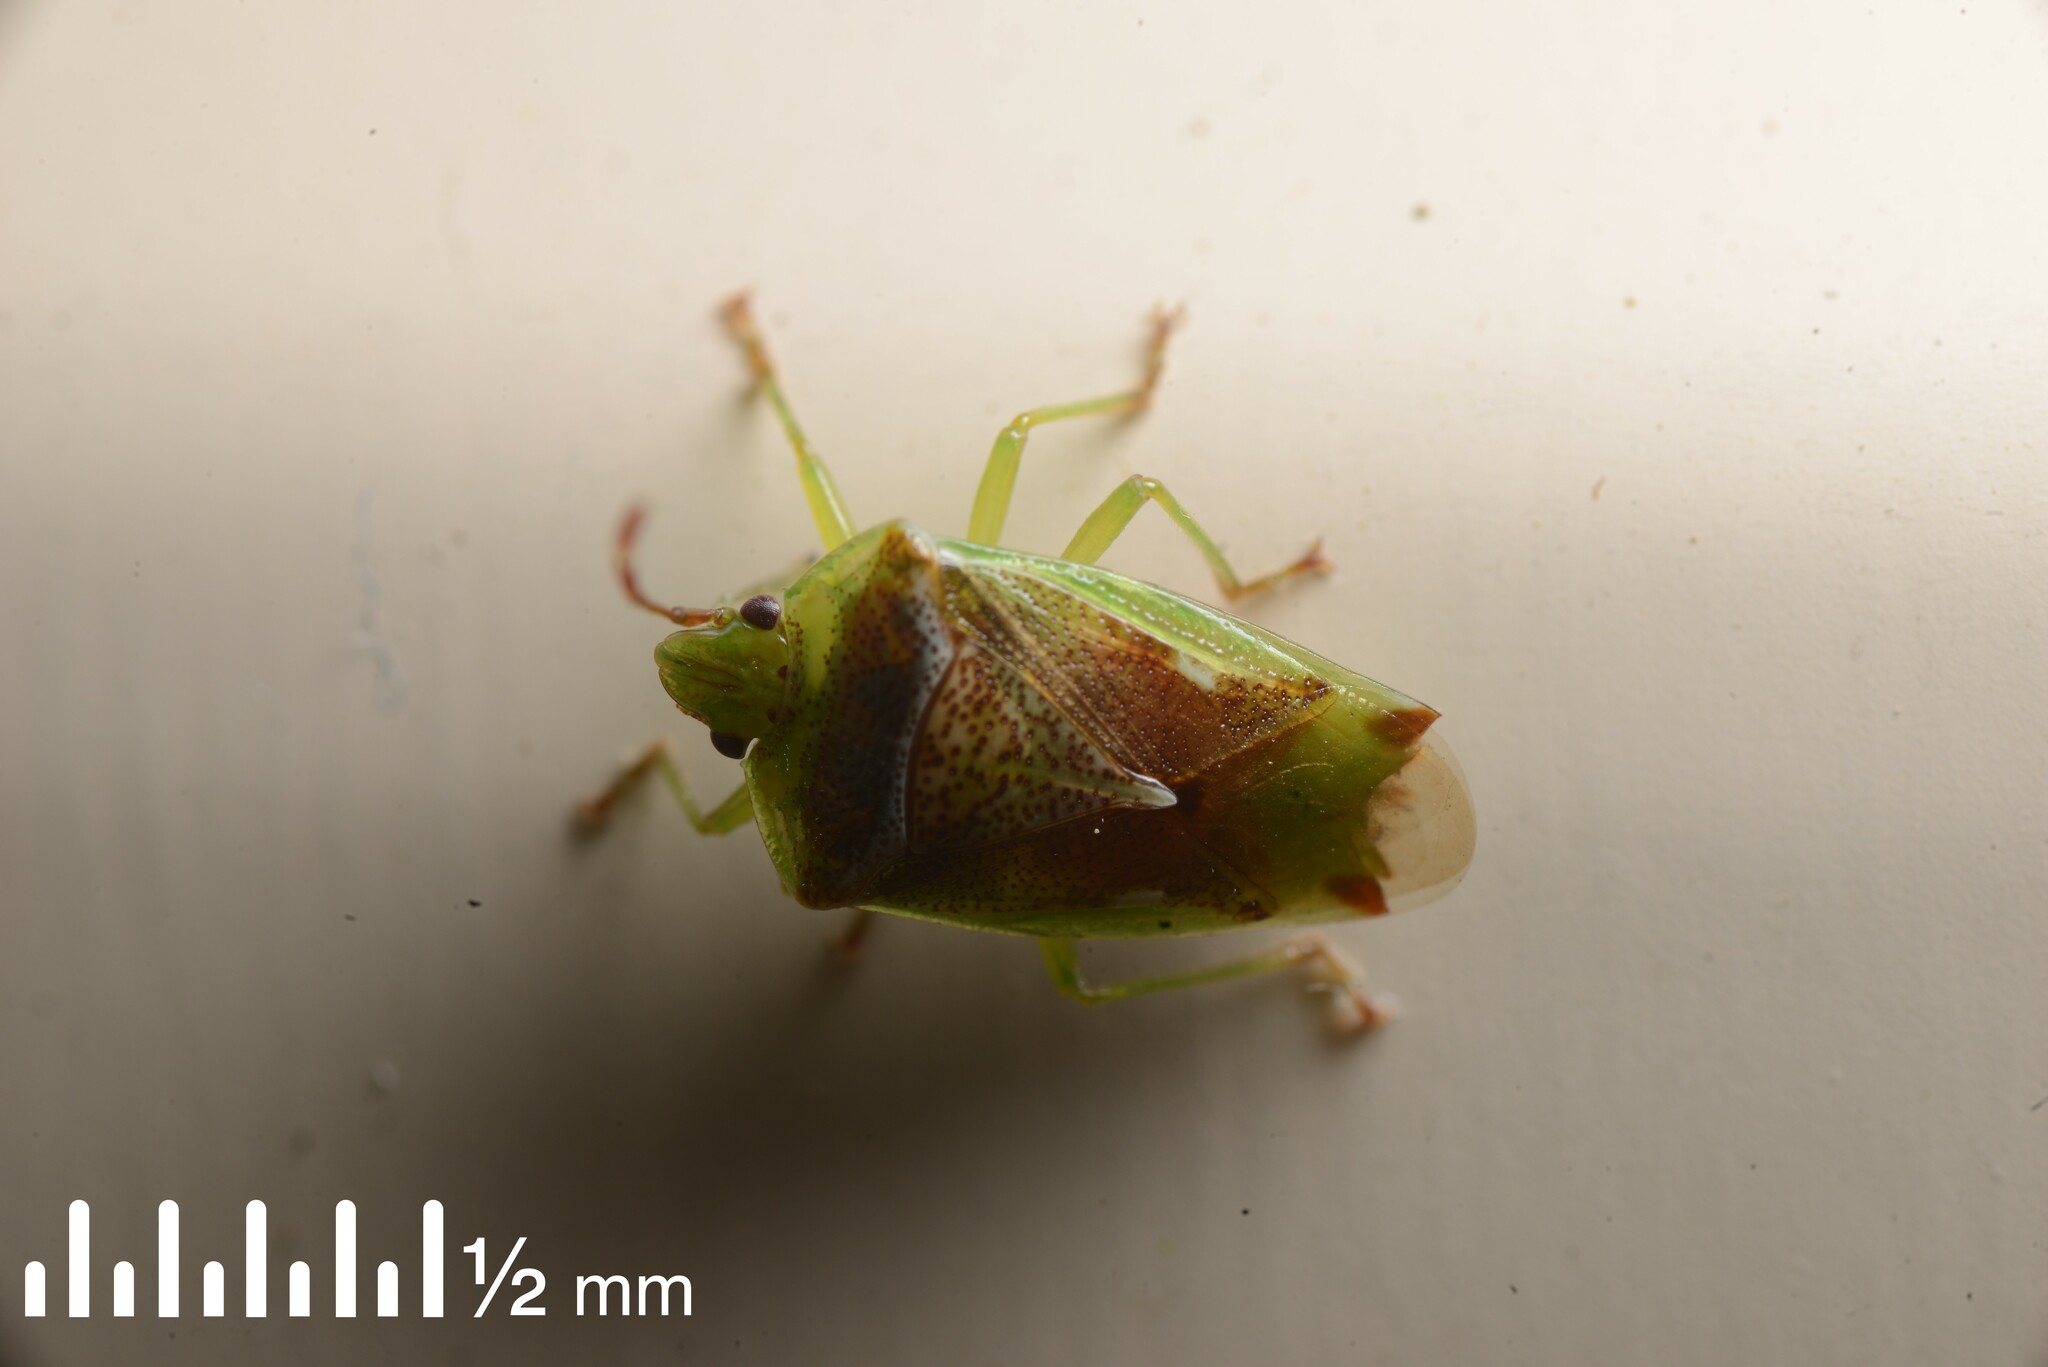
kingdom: Animalia
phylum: Arthropoda
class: Insecta
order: Hemiptera
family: Acanthosomatidae
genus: Oncacontias
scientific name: Oncacontias vittatus
